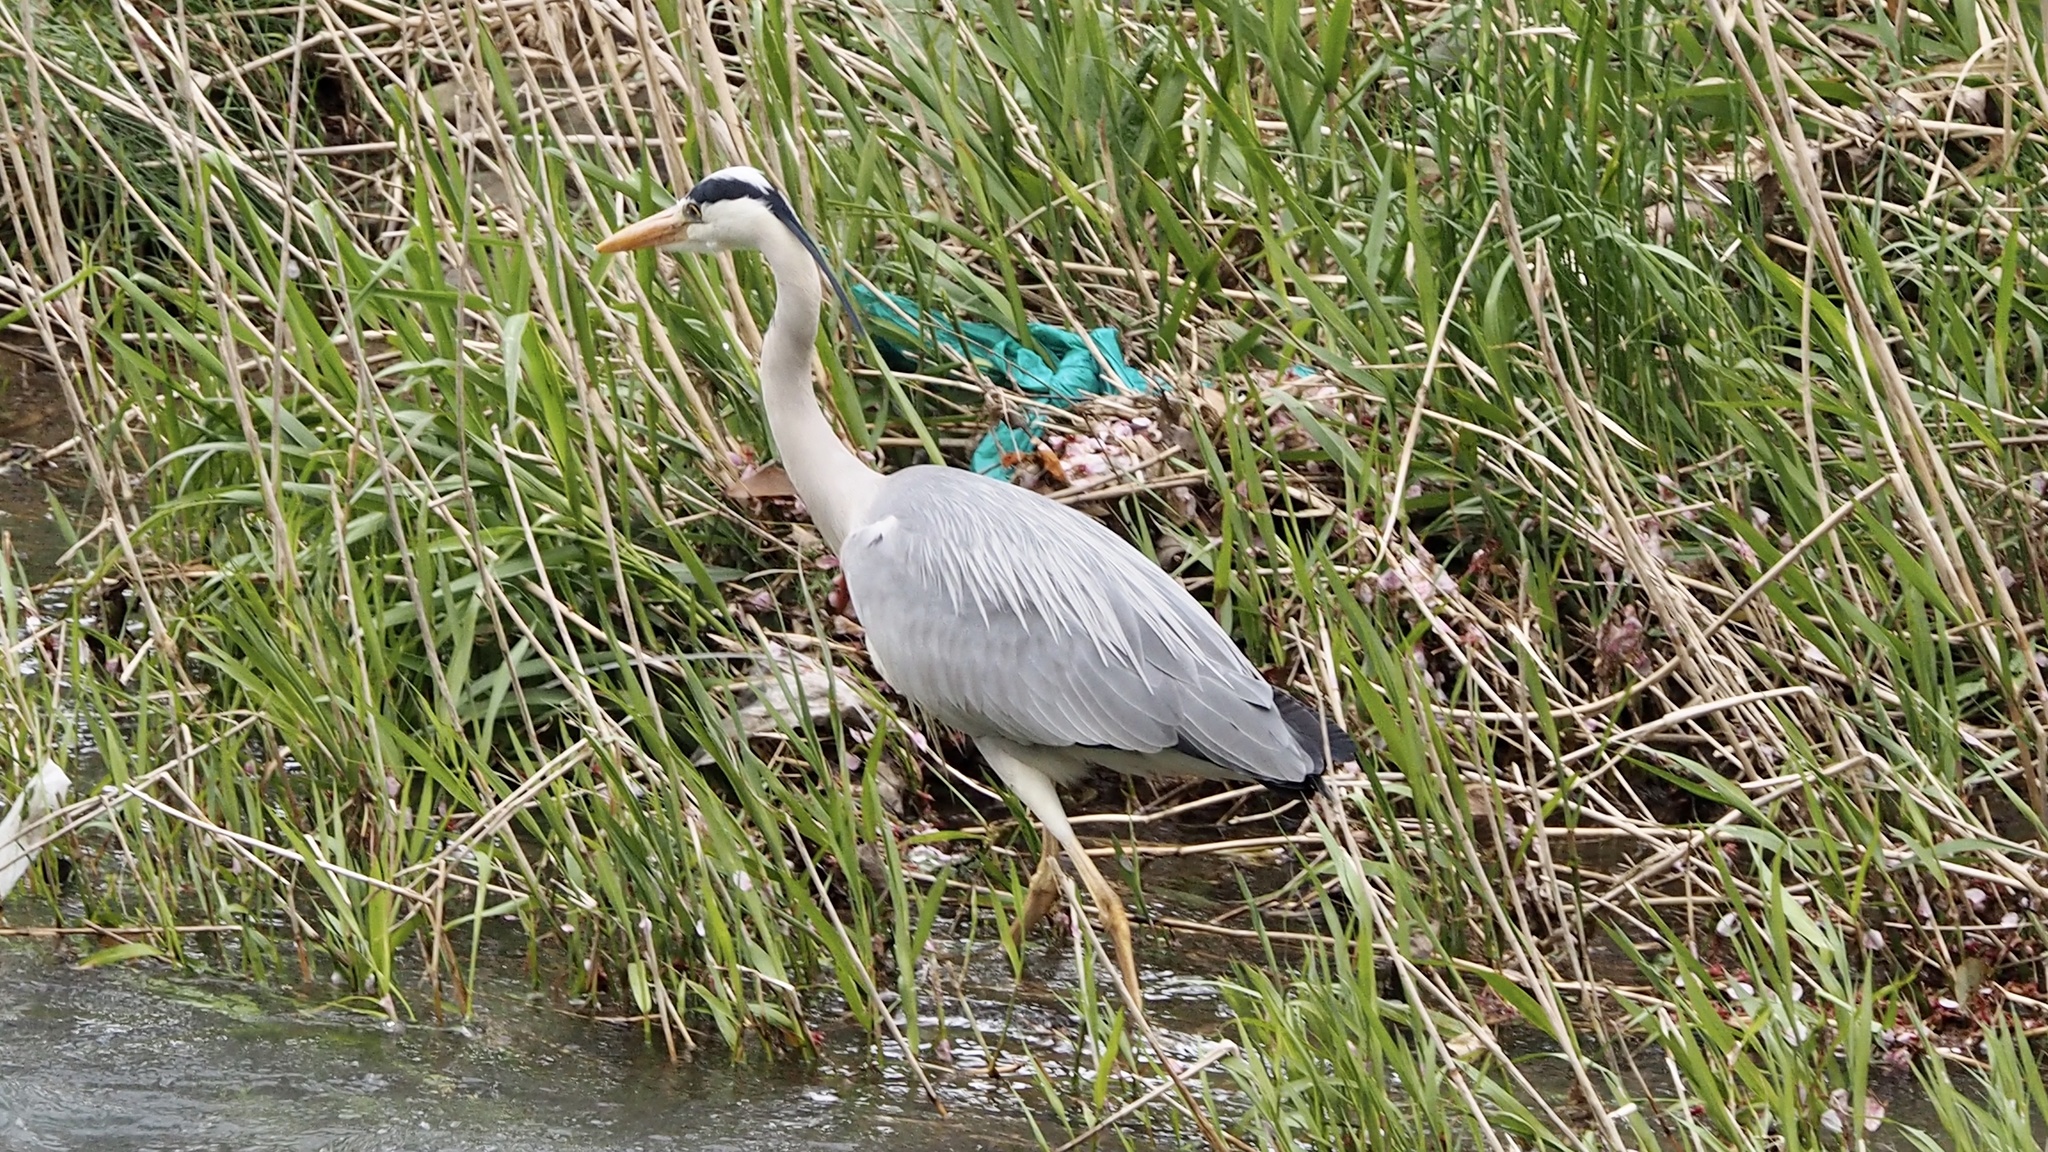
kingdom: Animalia
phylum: Chordata
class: Aves
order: Pelecaniformes
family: Ardeidae
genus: Ardea
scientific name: Ardea cinerea
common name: Grey heron
